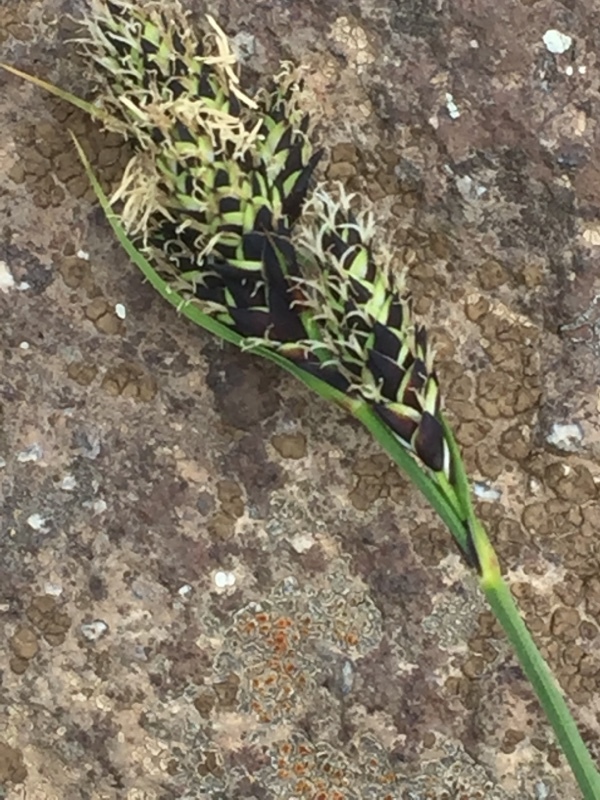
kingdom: Plantae
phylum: Tracheophyta
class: Liliopsida
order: Poales
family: Cyperaceae
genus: Carex
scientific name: Carex aterrima
